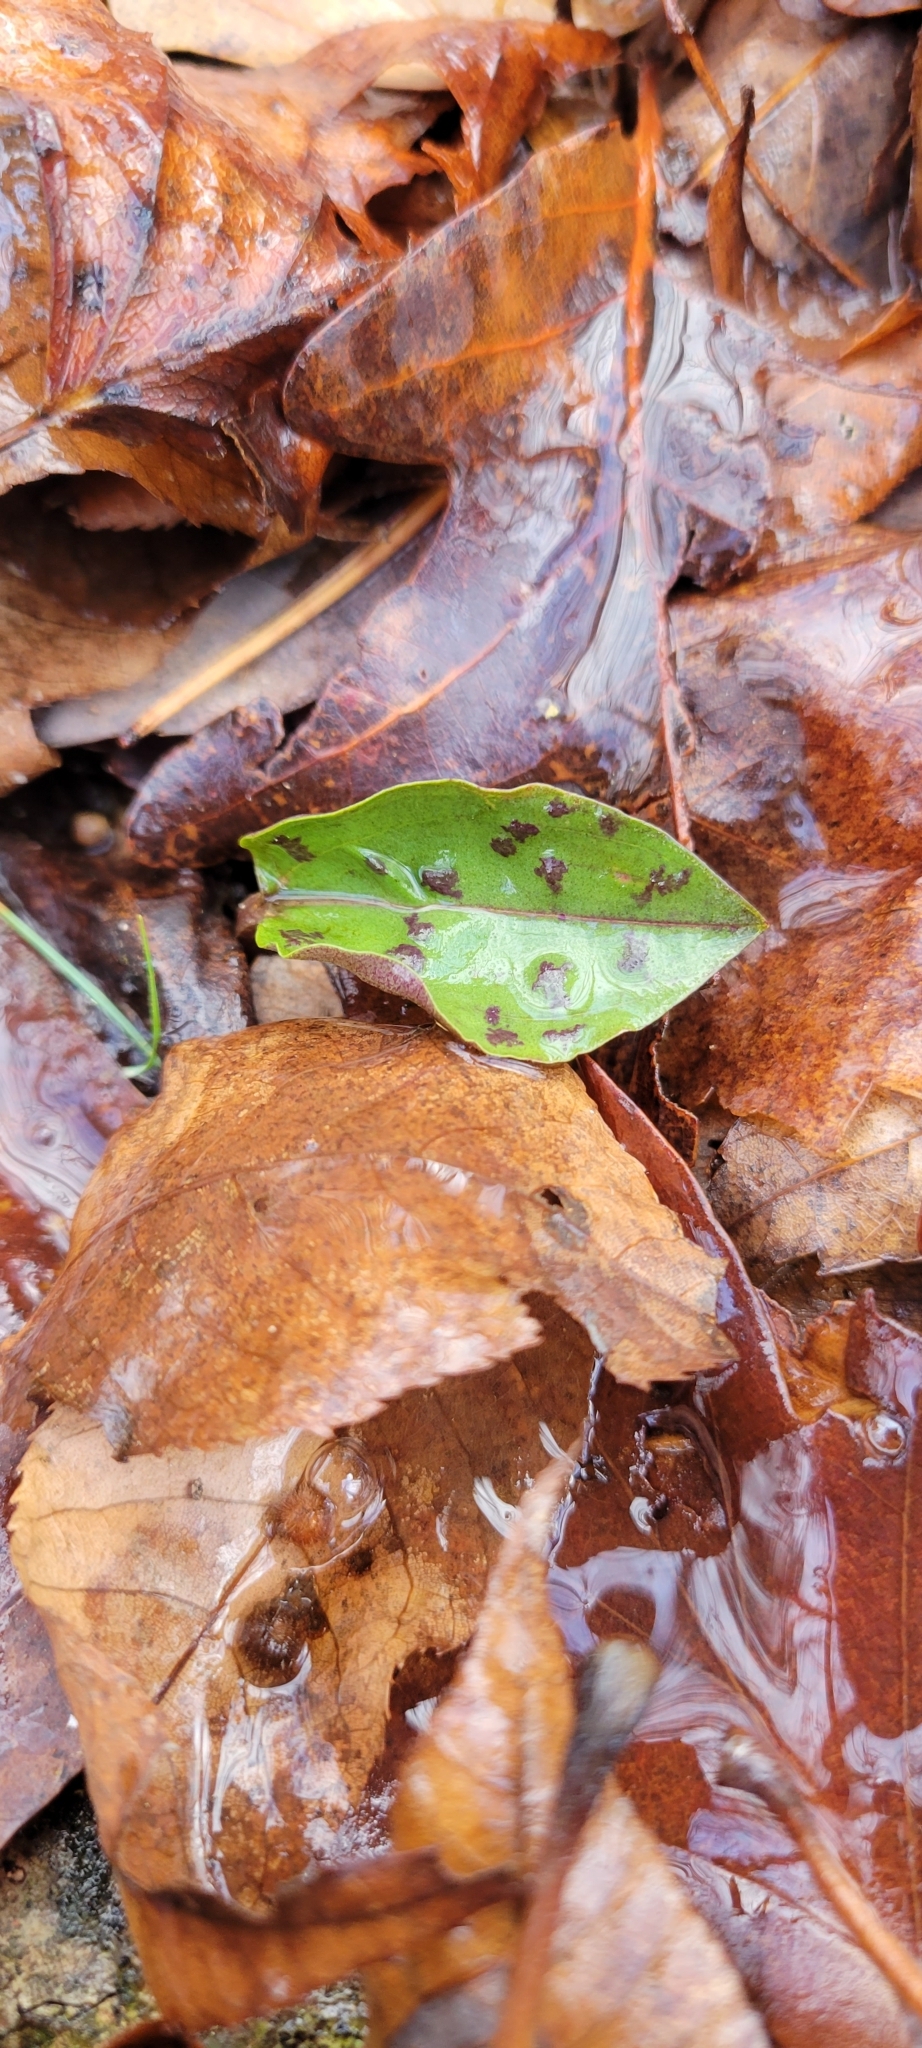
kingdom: Plantae
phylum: Tracheophyta
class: Liliopsida
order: Asparagales
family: Orchidaceae
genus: Tipularia
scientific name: Tipularia discolor
